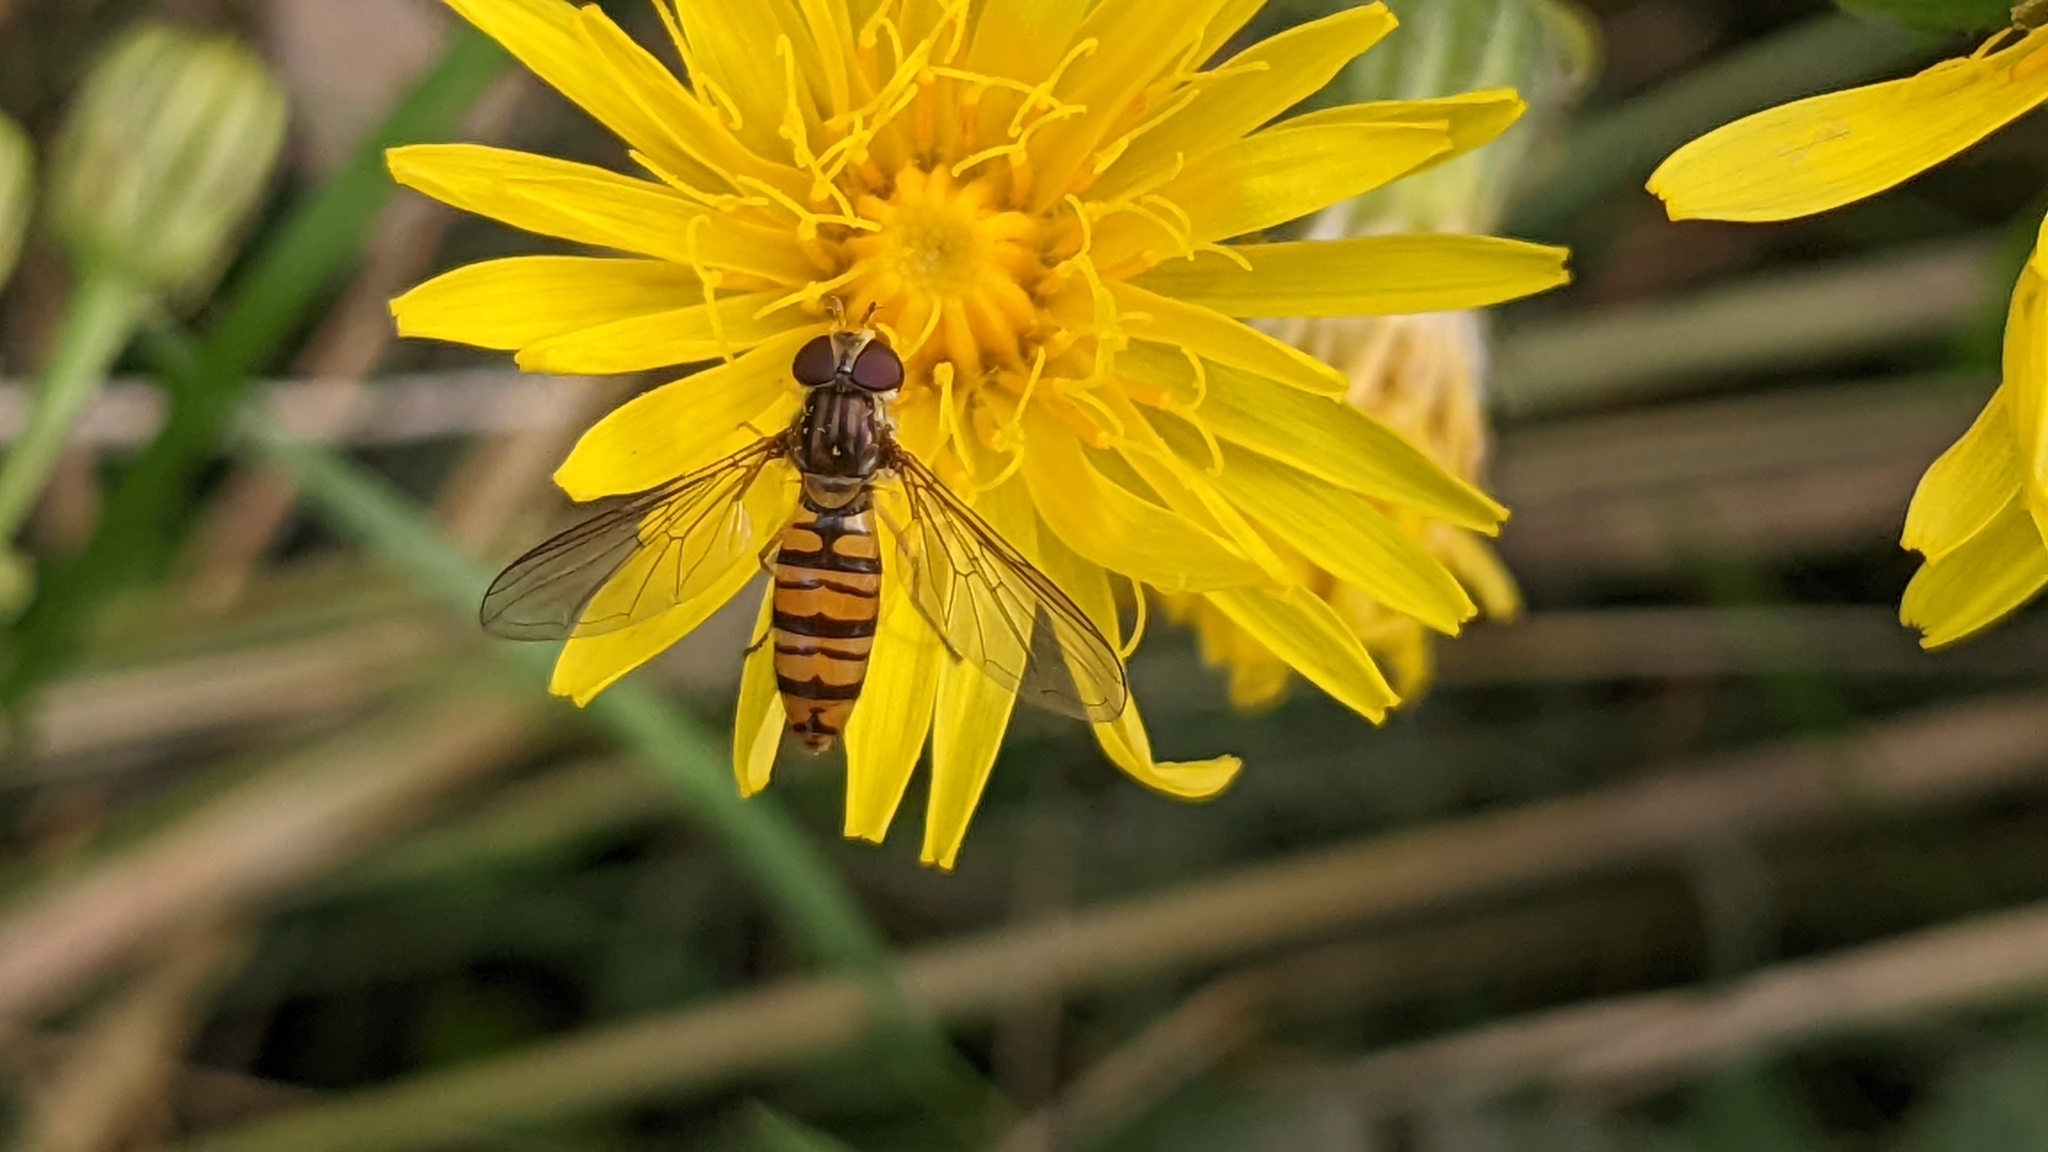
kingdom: Animalia
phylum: Arthropoda
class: Insecta
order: Diptera
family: Syrphidae
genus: Episyrphus
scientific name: Episyrphus balteatus
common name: Marmalade hoverfly
